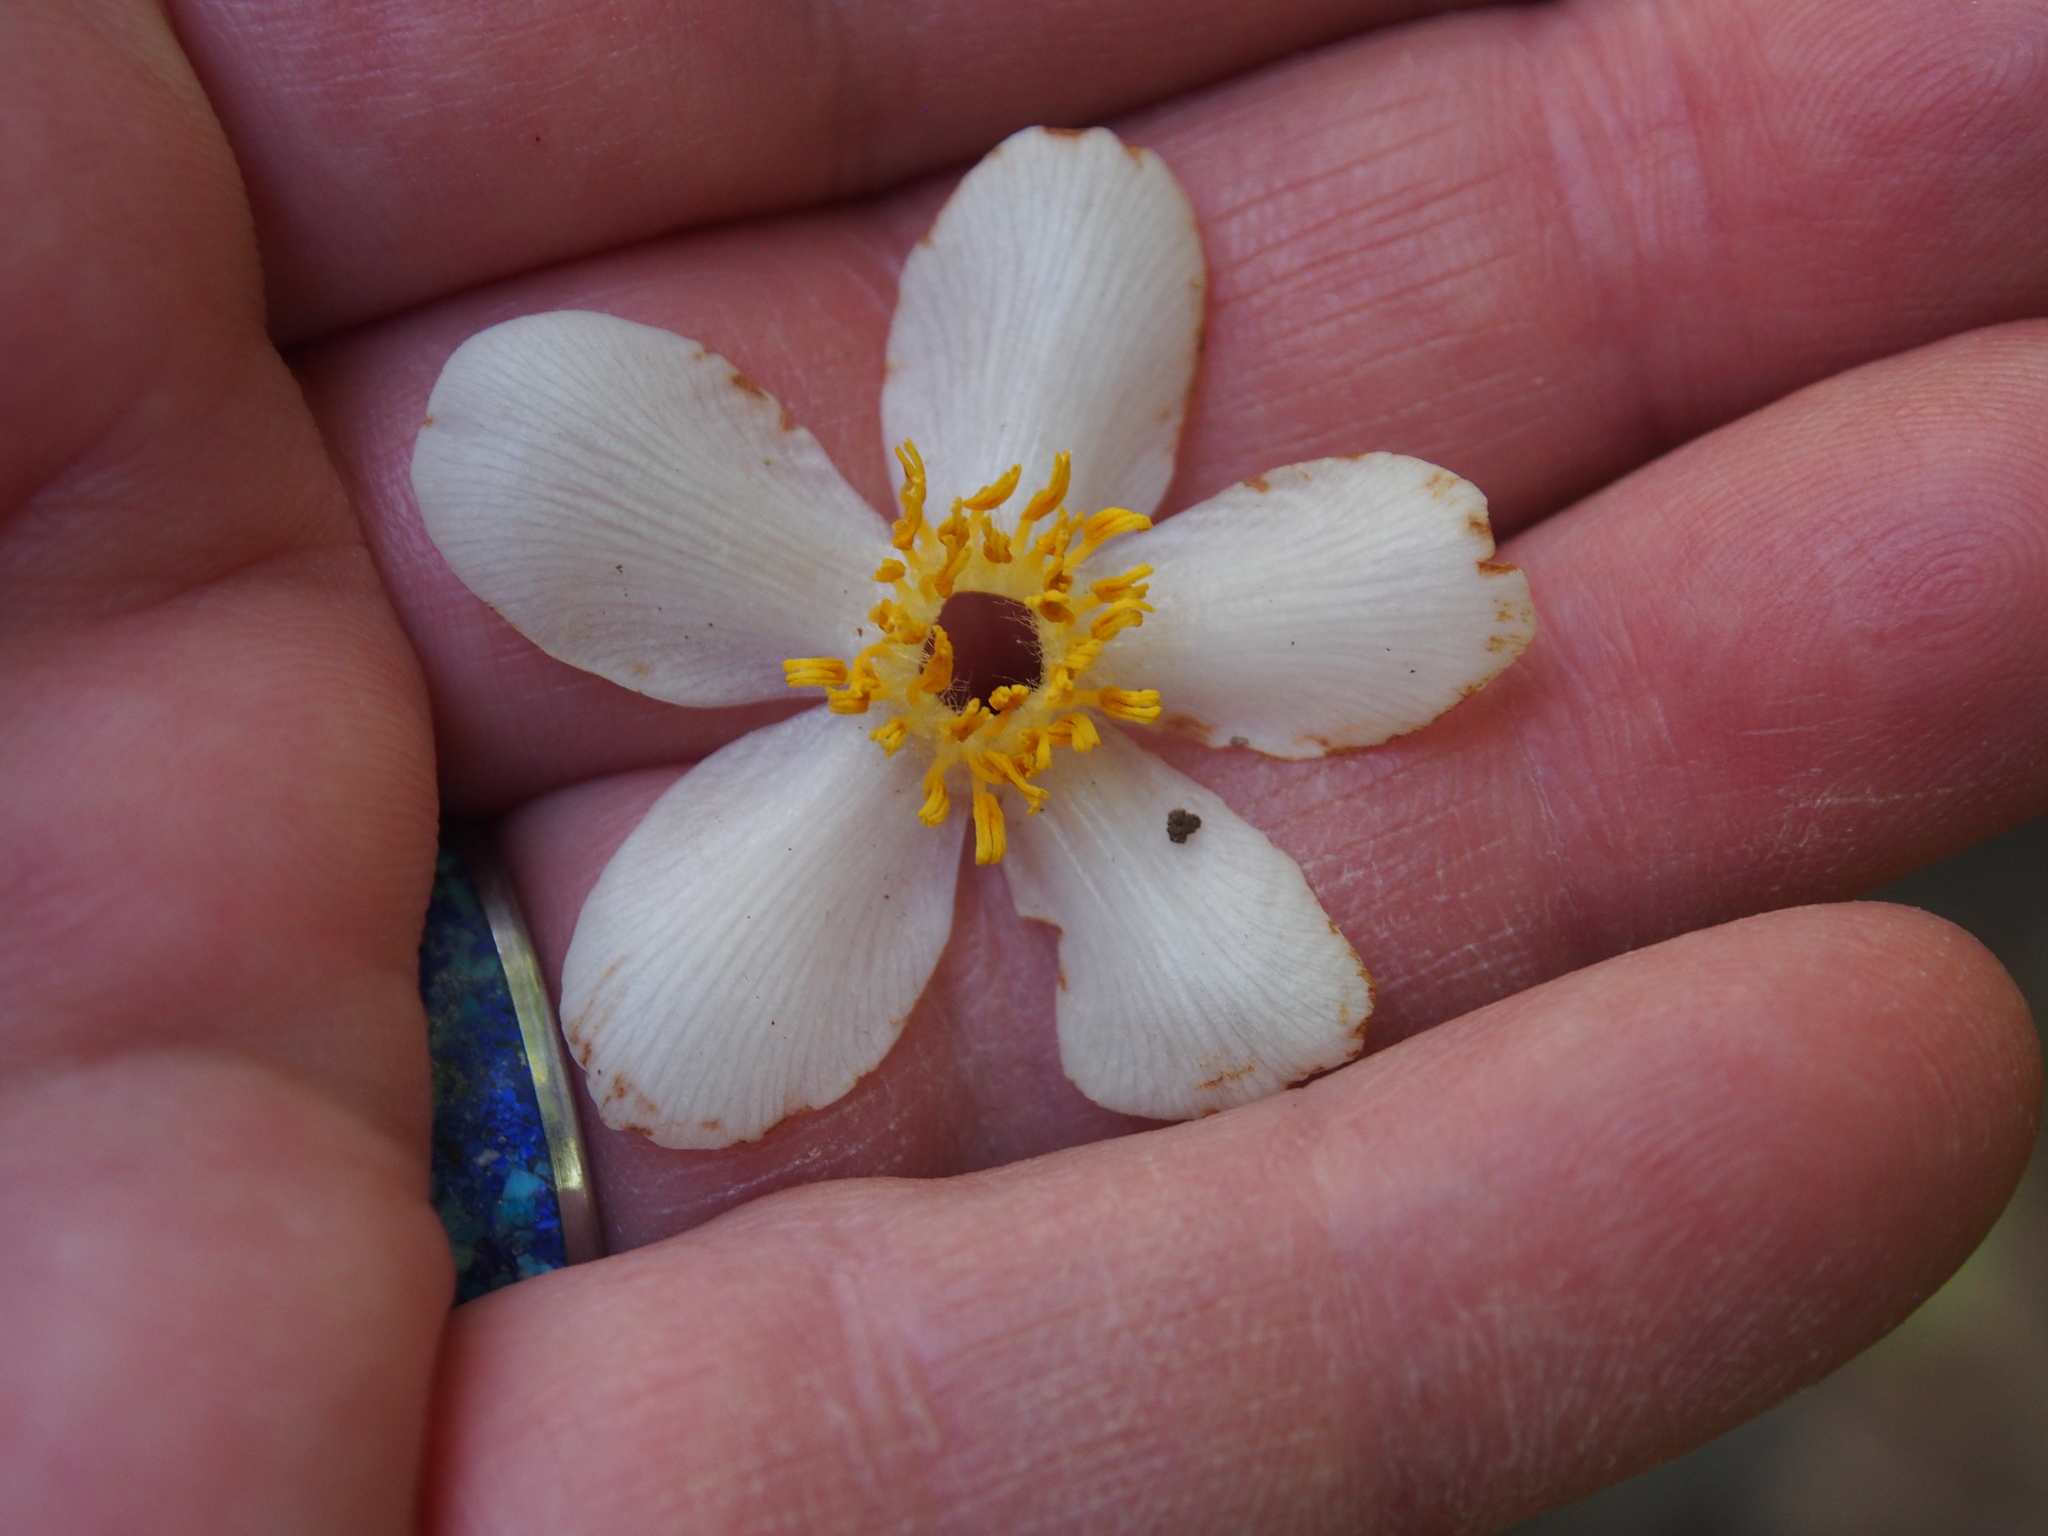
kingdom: Plantae
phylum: Tracheophyta
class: Magnoliopsida
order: Ericales
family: Actinidiaceae
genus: Saurauia
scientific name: Saurauia montana
